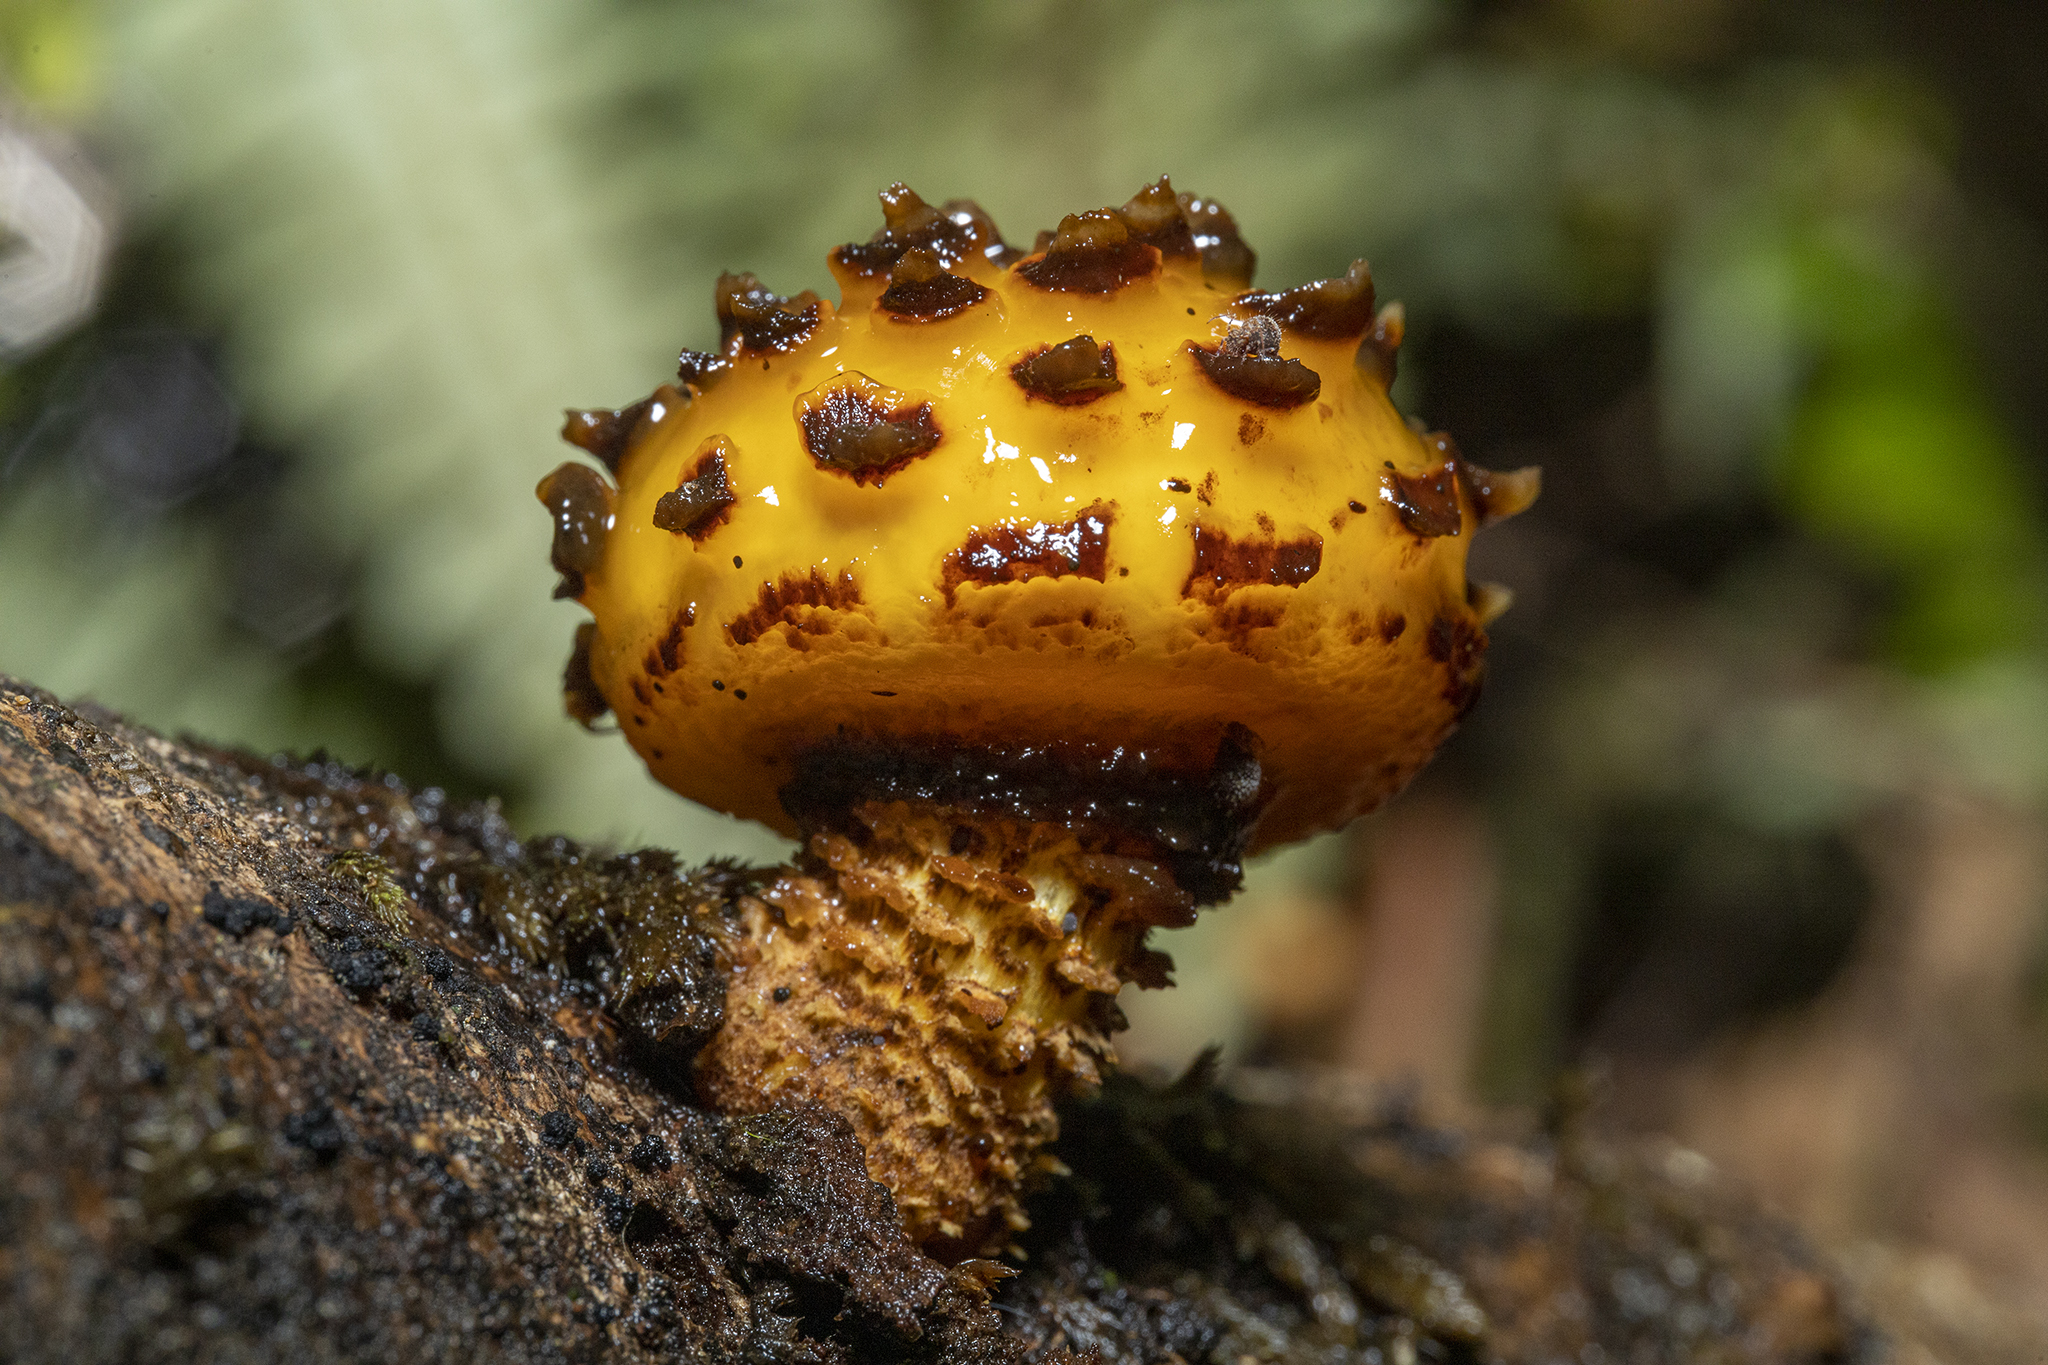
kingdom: Fungi
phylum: Basidiomycota
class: Agaricomycetes
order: Agaricales
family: Strophariaceae
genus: Pholiota
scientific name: Pholiota glutinosa
